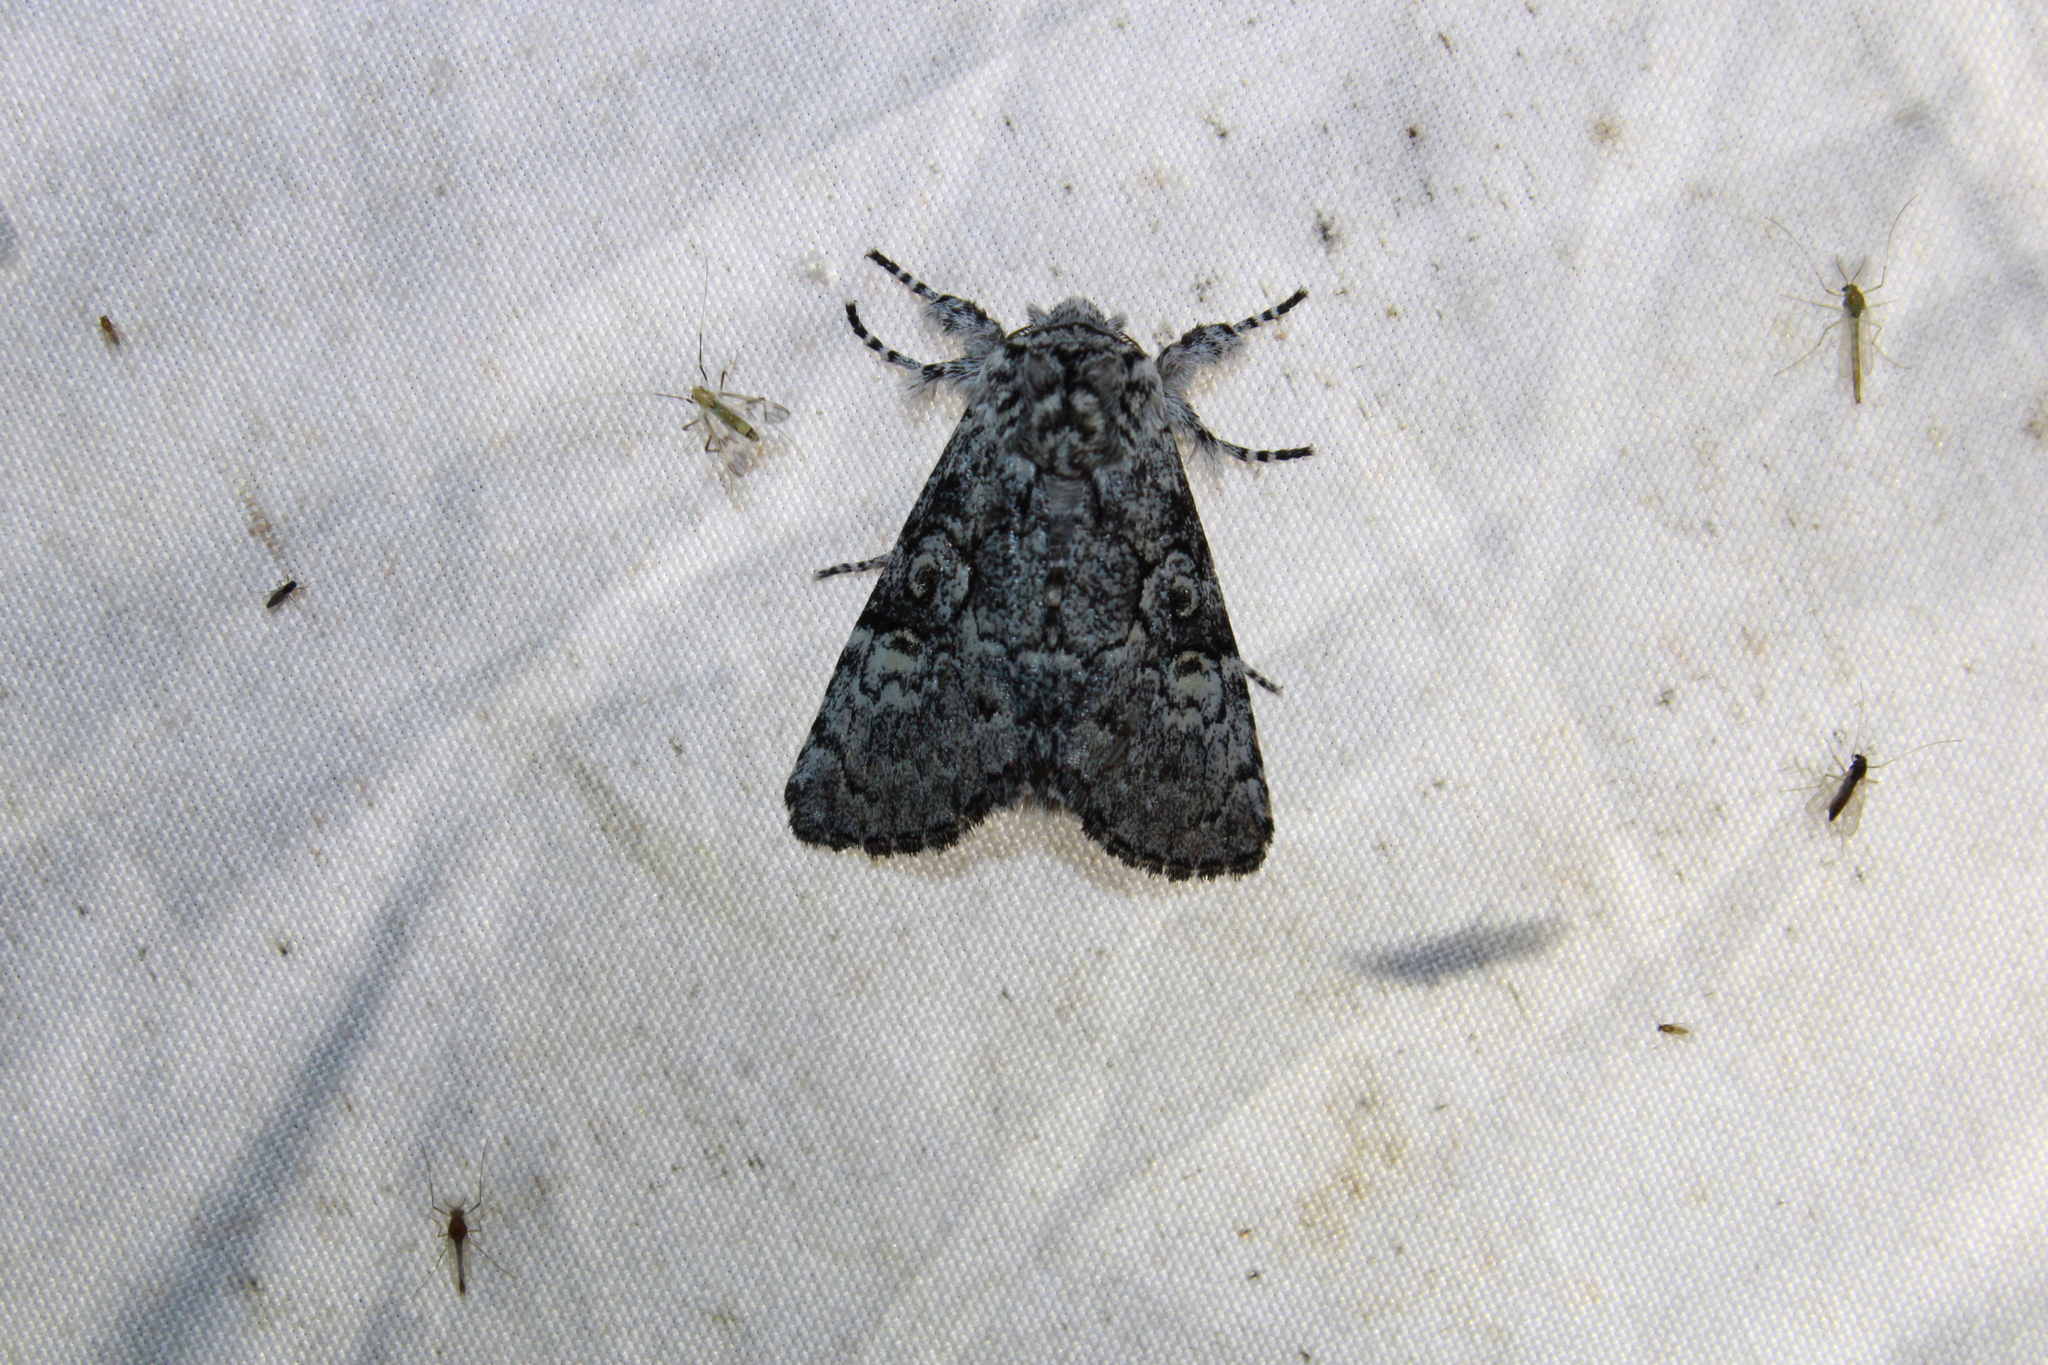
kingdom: Animalia
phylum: Arthropoda
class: Insecta
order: Lepidoptera
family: Noctuidae
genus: Charadra
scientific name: Charadra deridens
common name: Marbled tuffet
